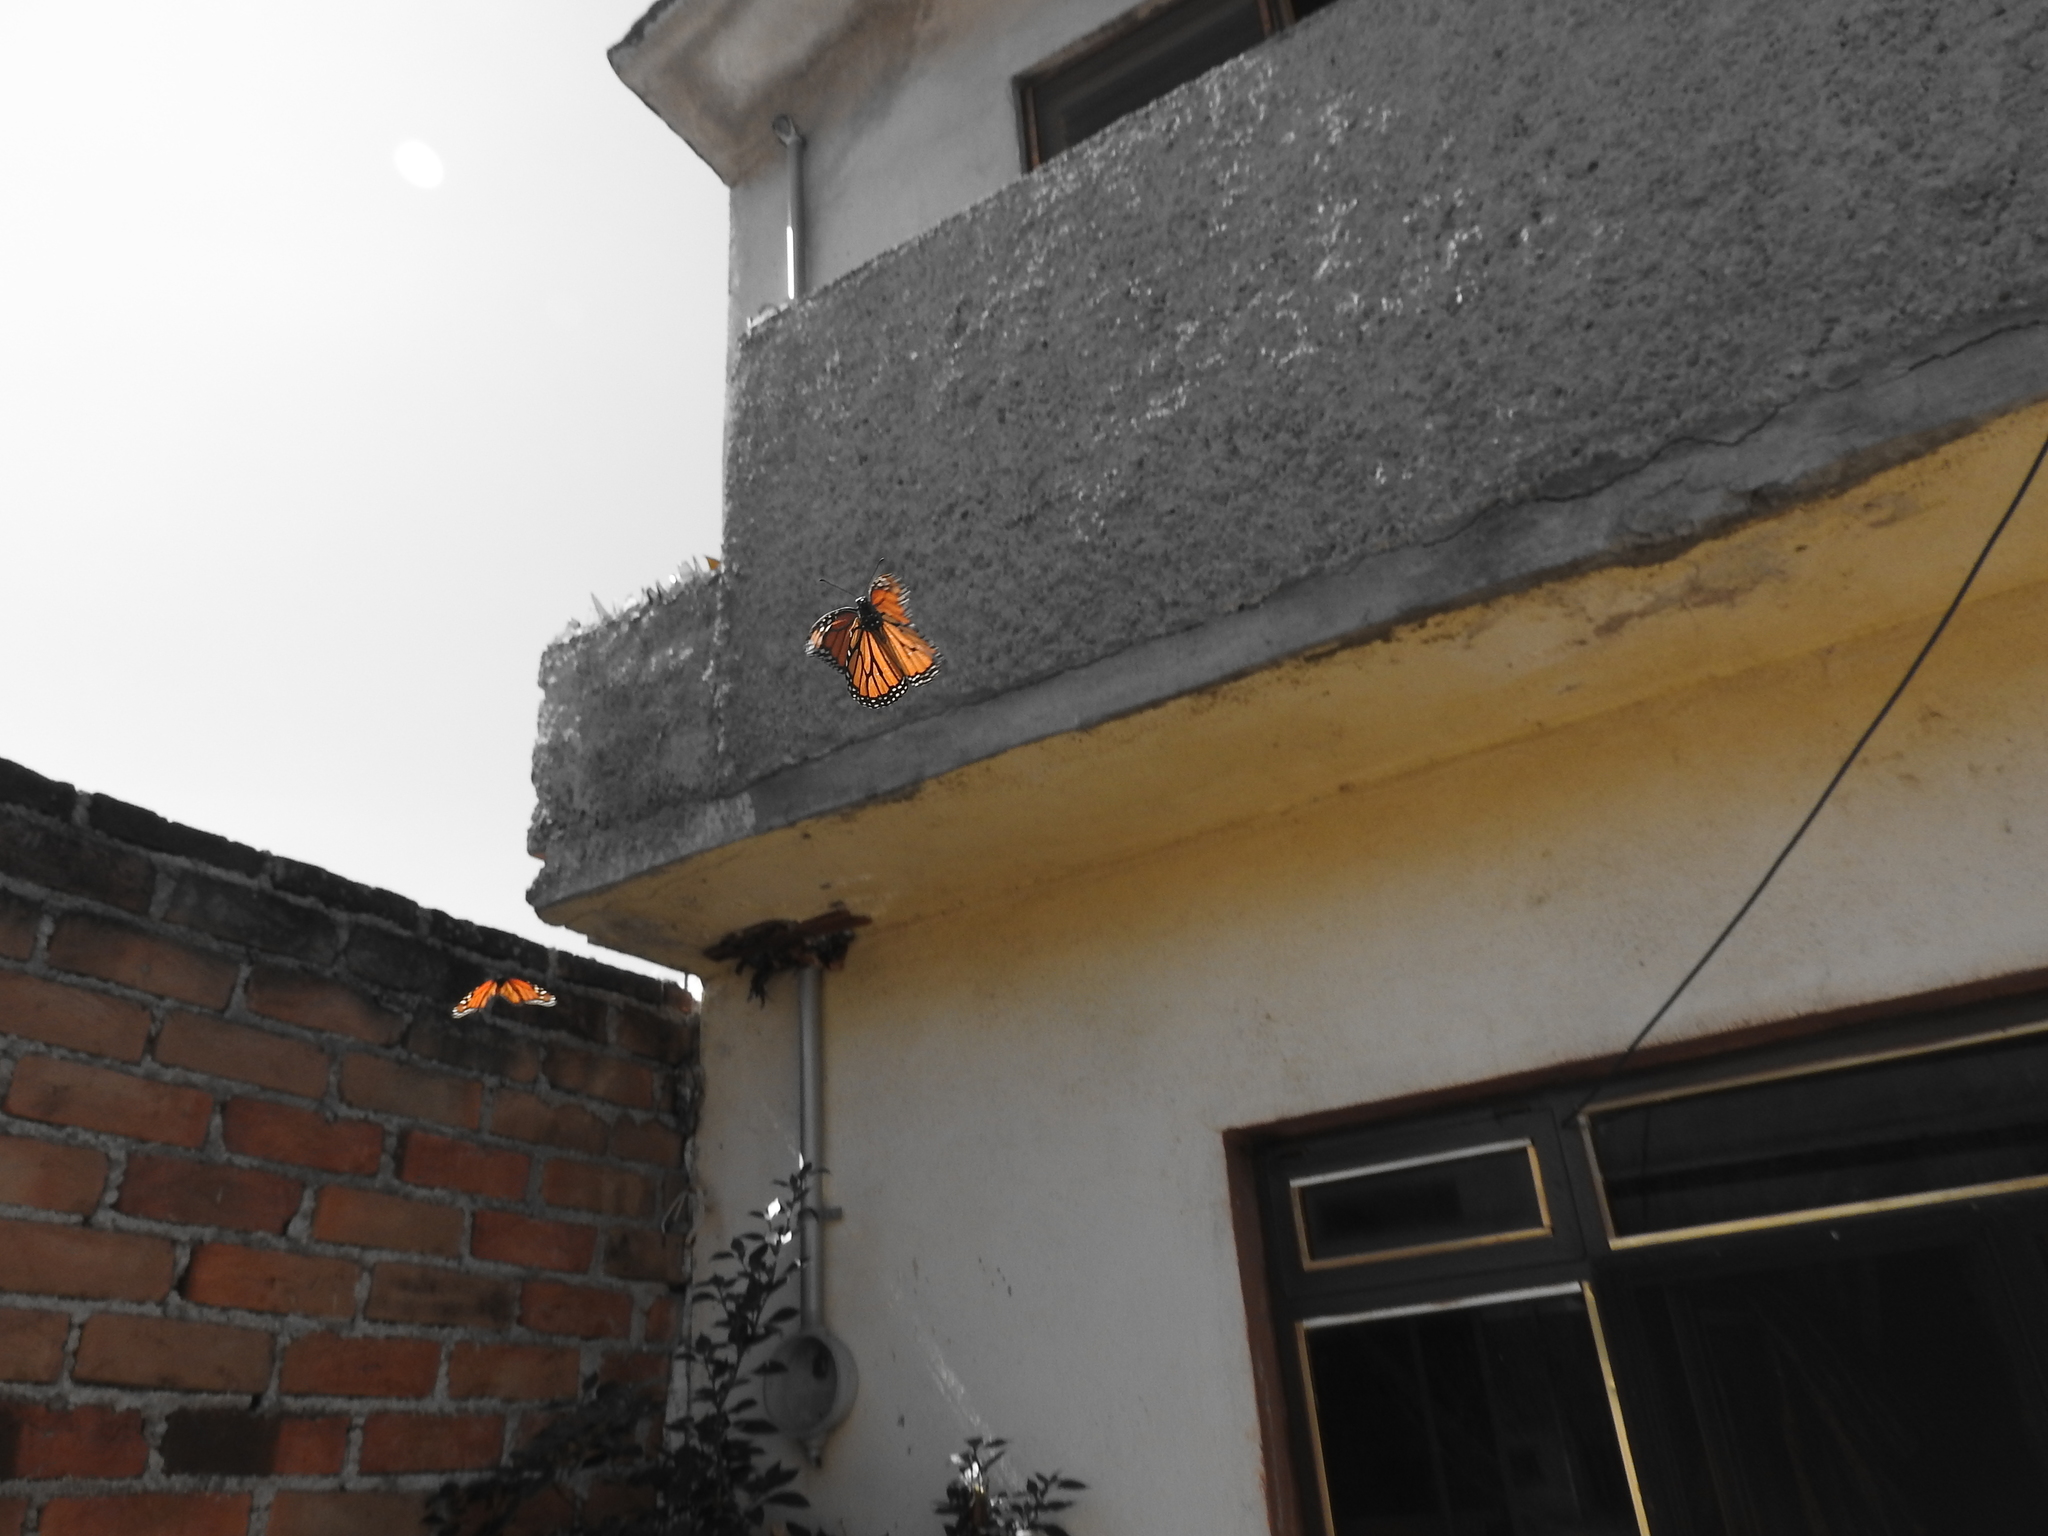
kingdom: Animalia
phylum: Arthropoda
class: Insecta
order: Lepidoptera
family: Nymphalidae
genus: Danaus
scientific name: Danaus plexippus
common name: Monarch
